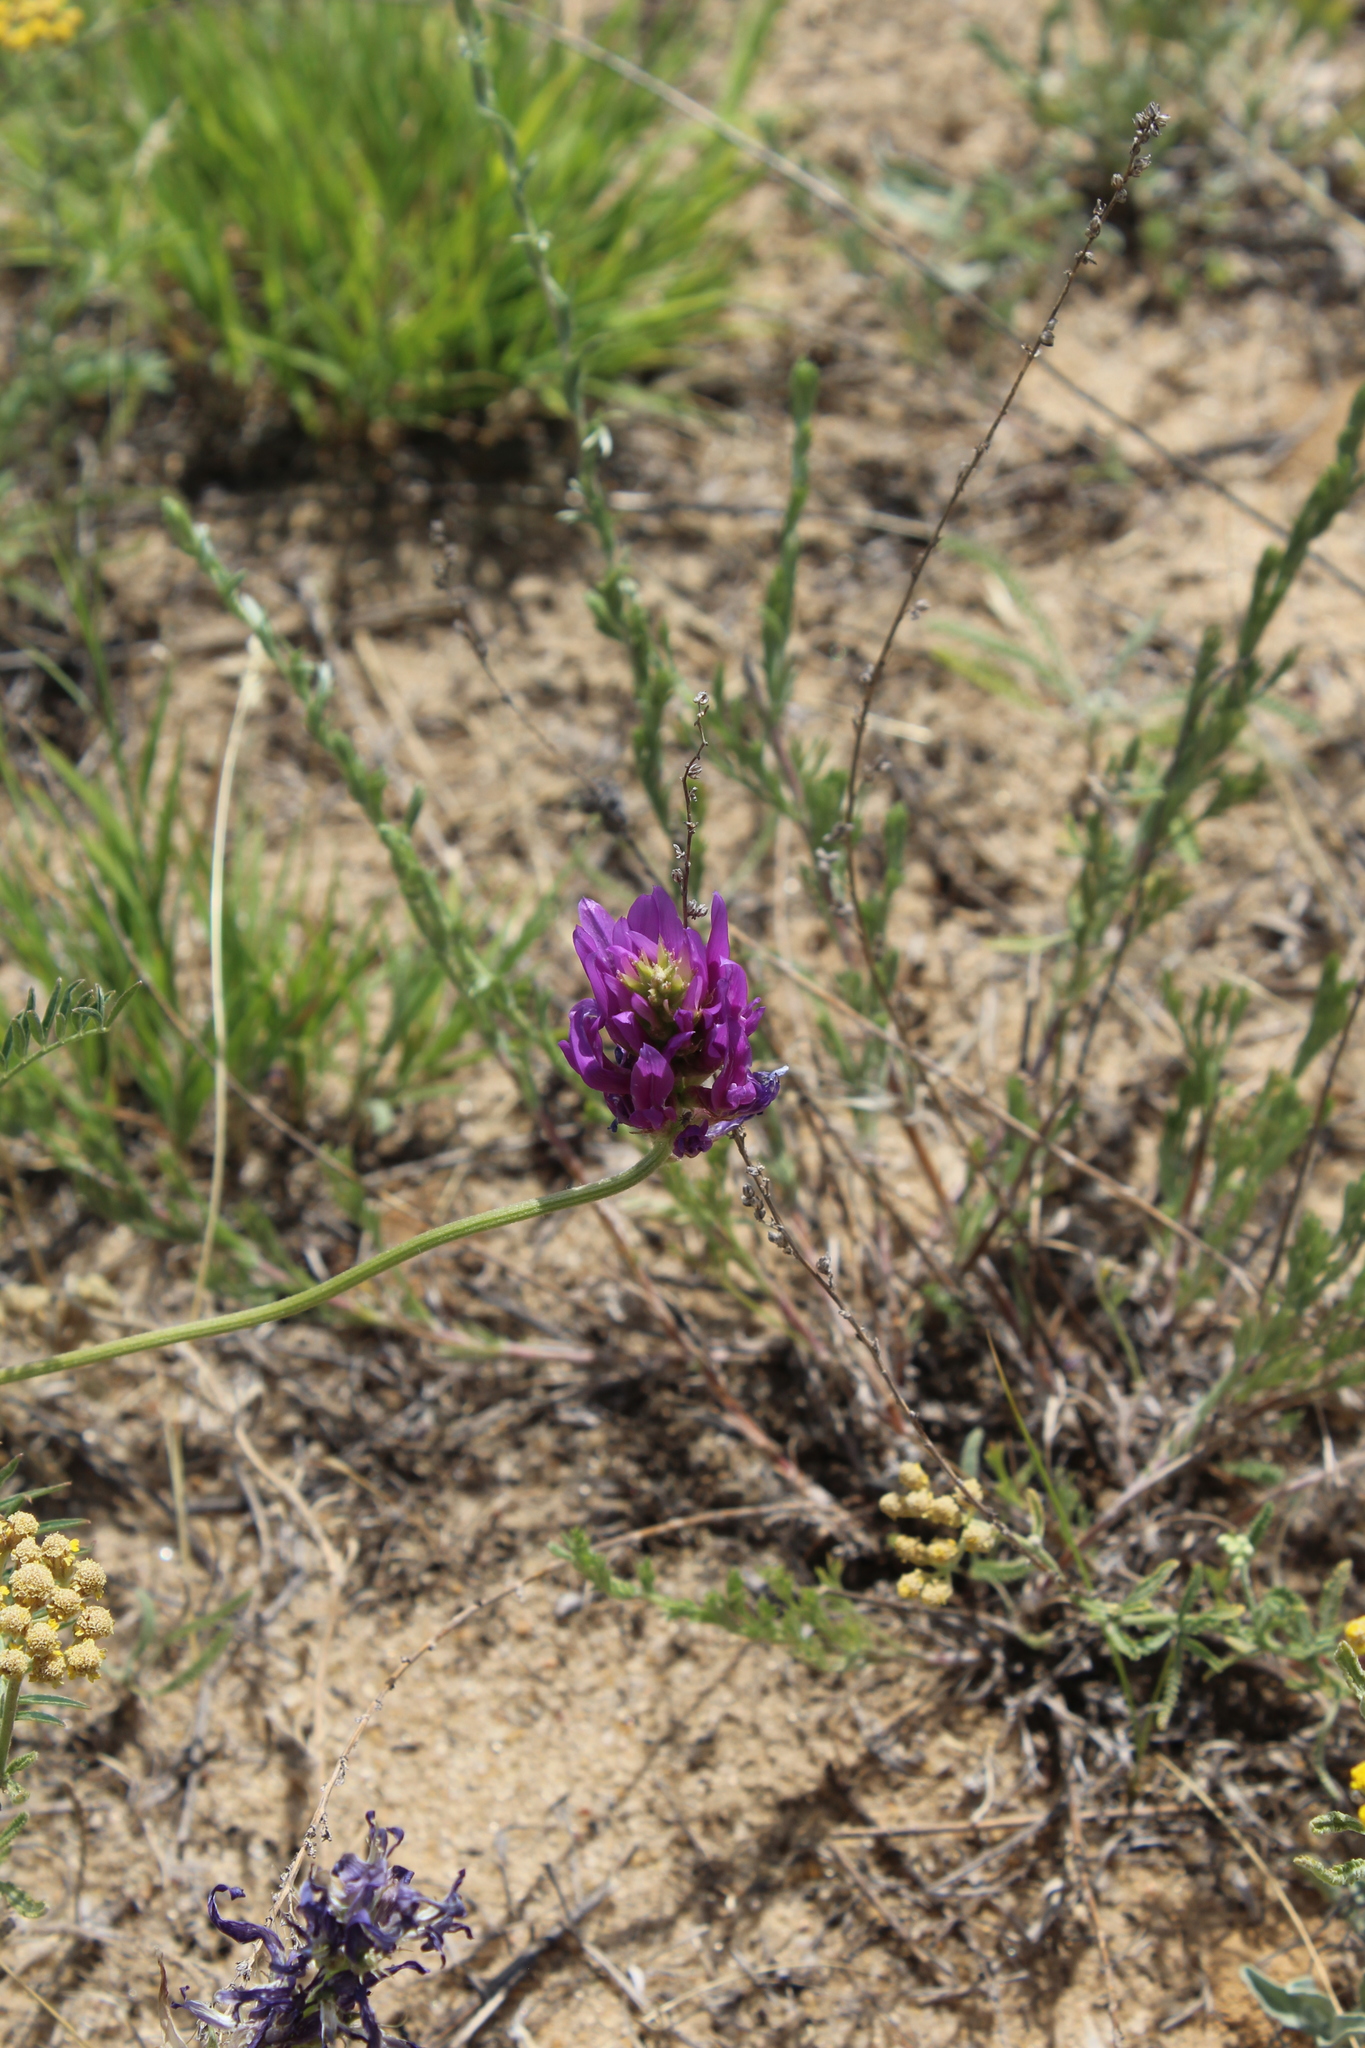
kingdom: Plantae
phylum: Tracheophyta
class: Magnoliopsida
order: Fabales
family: Fabaceae
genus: Astragalus
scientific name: Astragalus onobrychis
